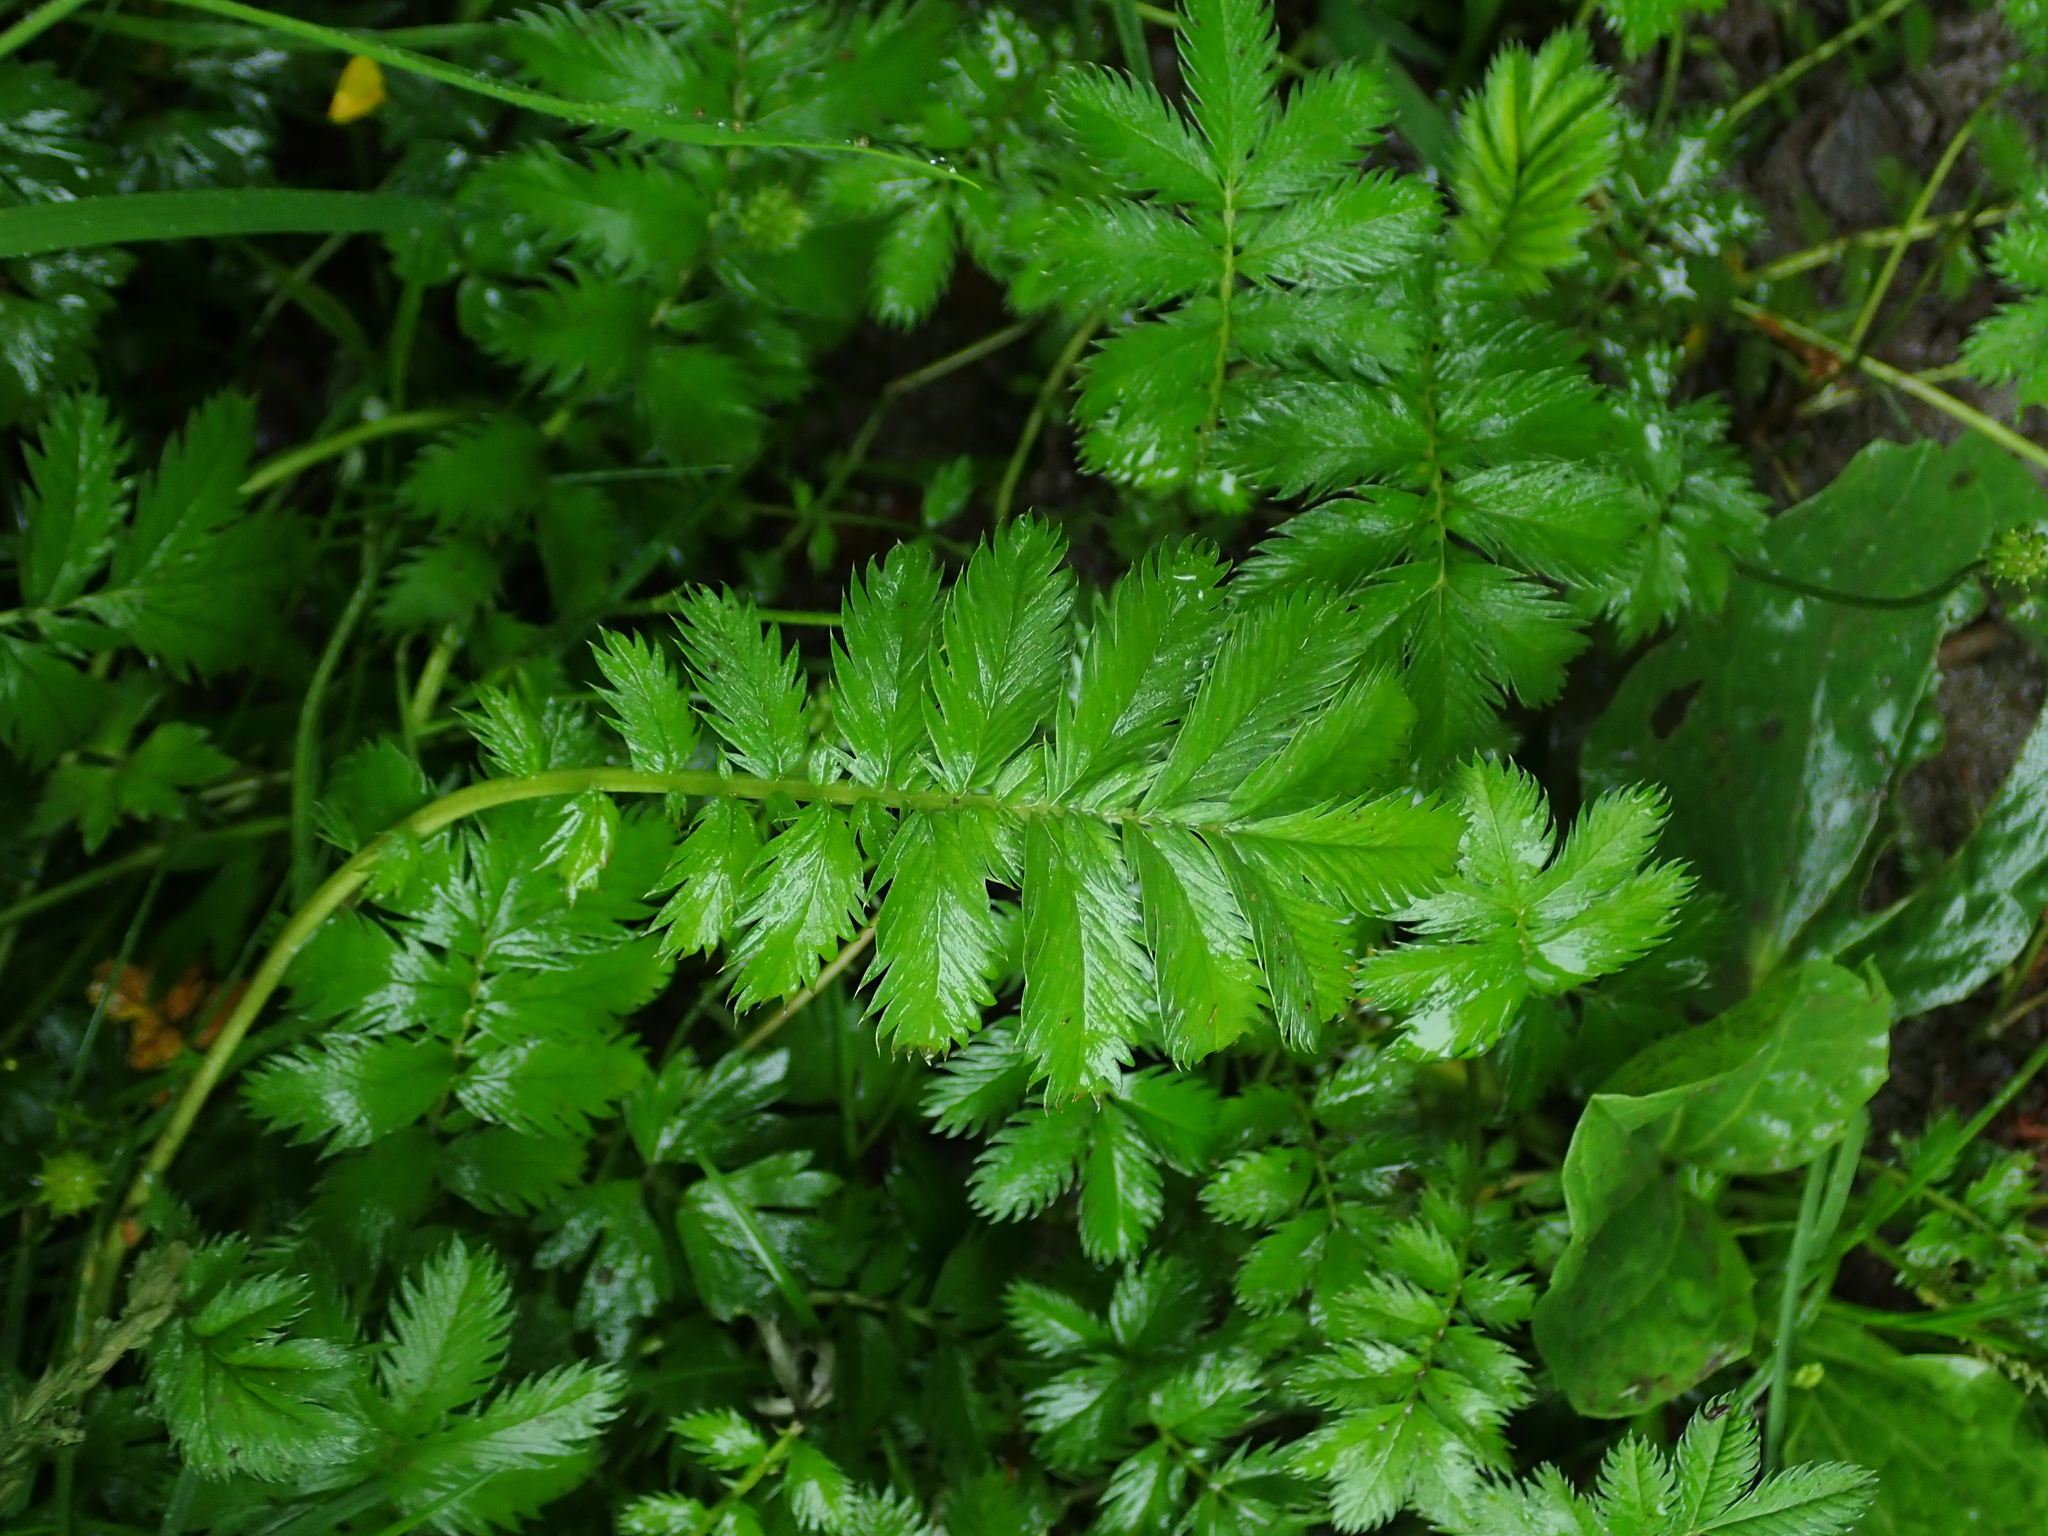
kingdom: Plantae
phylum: Tracheophyta
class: Magnoliopsida
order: Rosales
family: Rosaceae
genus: Argentina
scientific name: Argentina anserina
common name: Common silverweed
